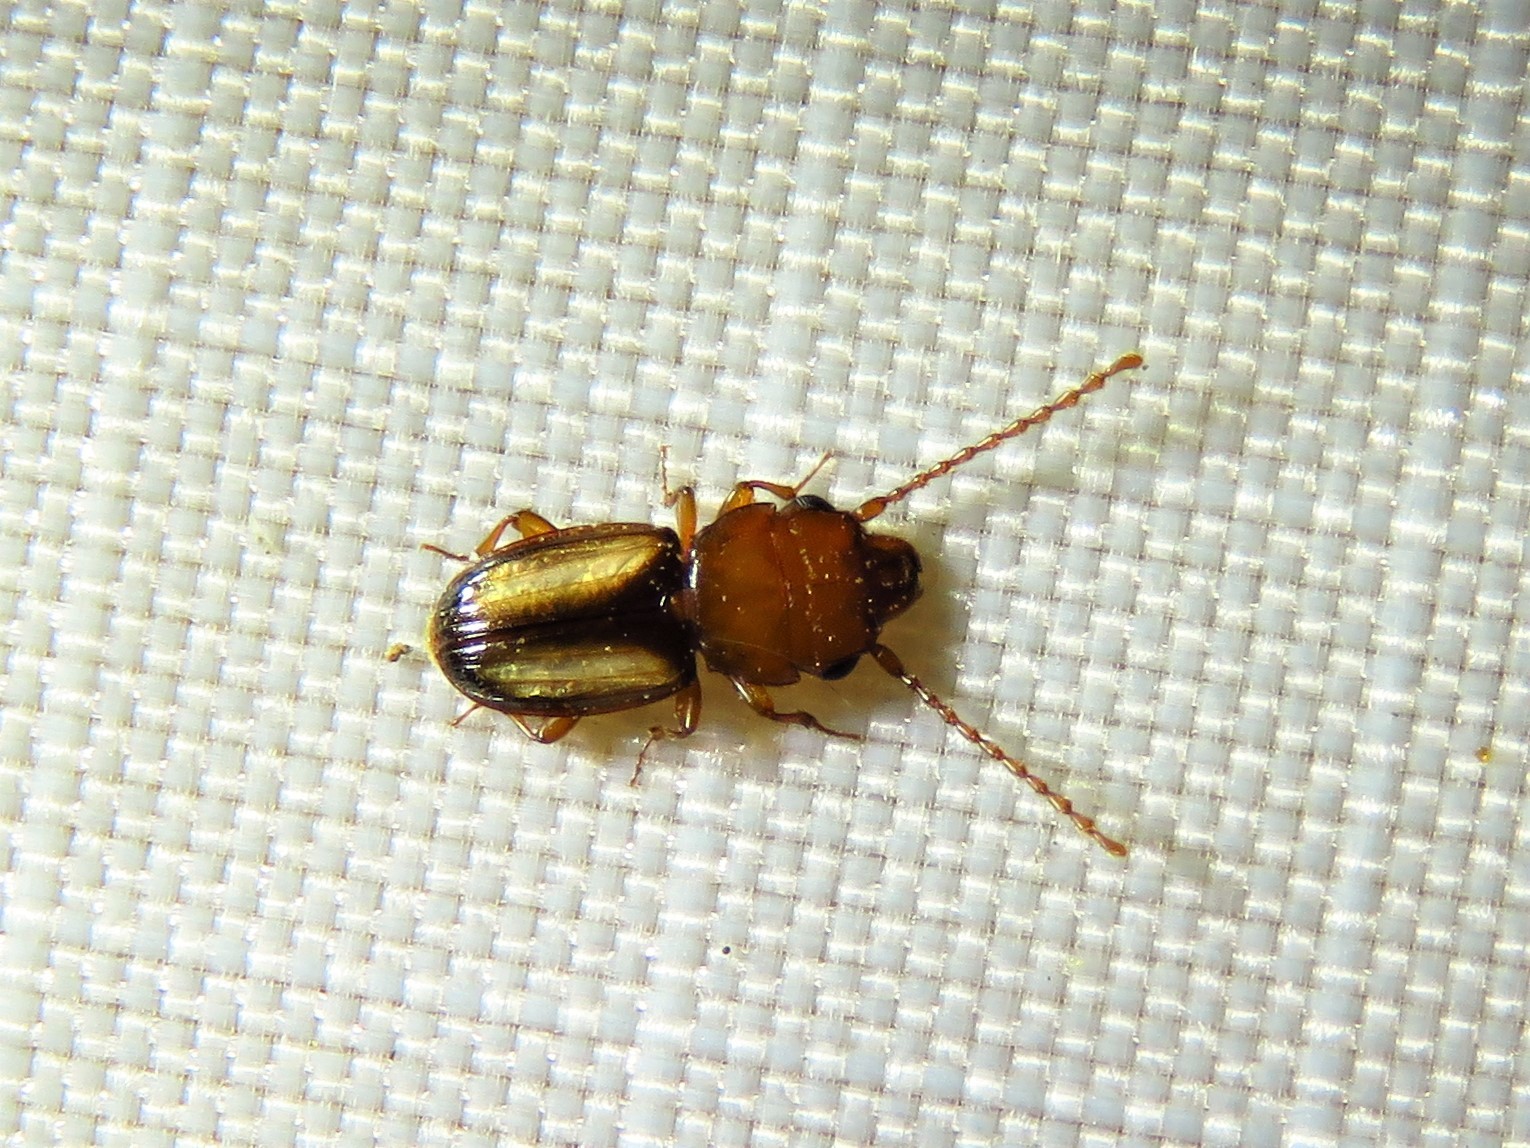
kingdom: Animalia
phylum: Arthropoda
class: Insecta
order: Coleoptera
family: Laemophloeidae
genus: Laemophloeus
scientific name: Laemophloeus terminalis
